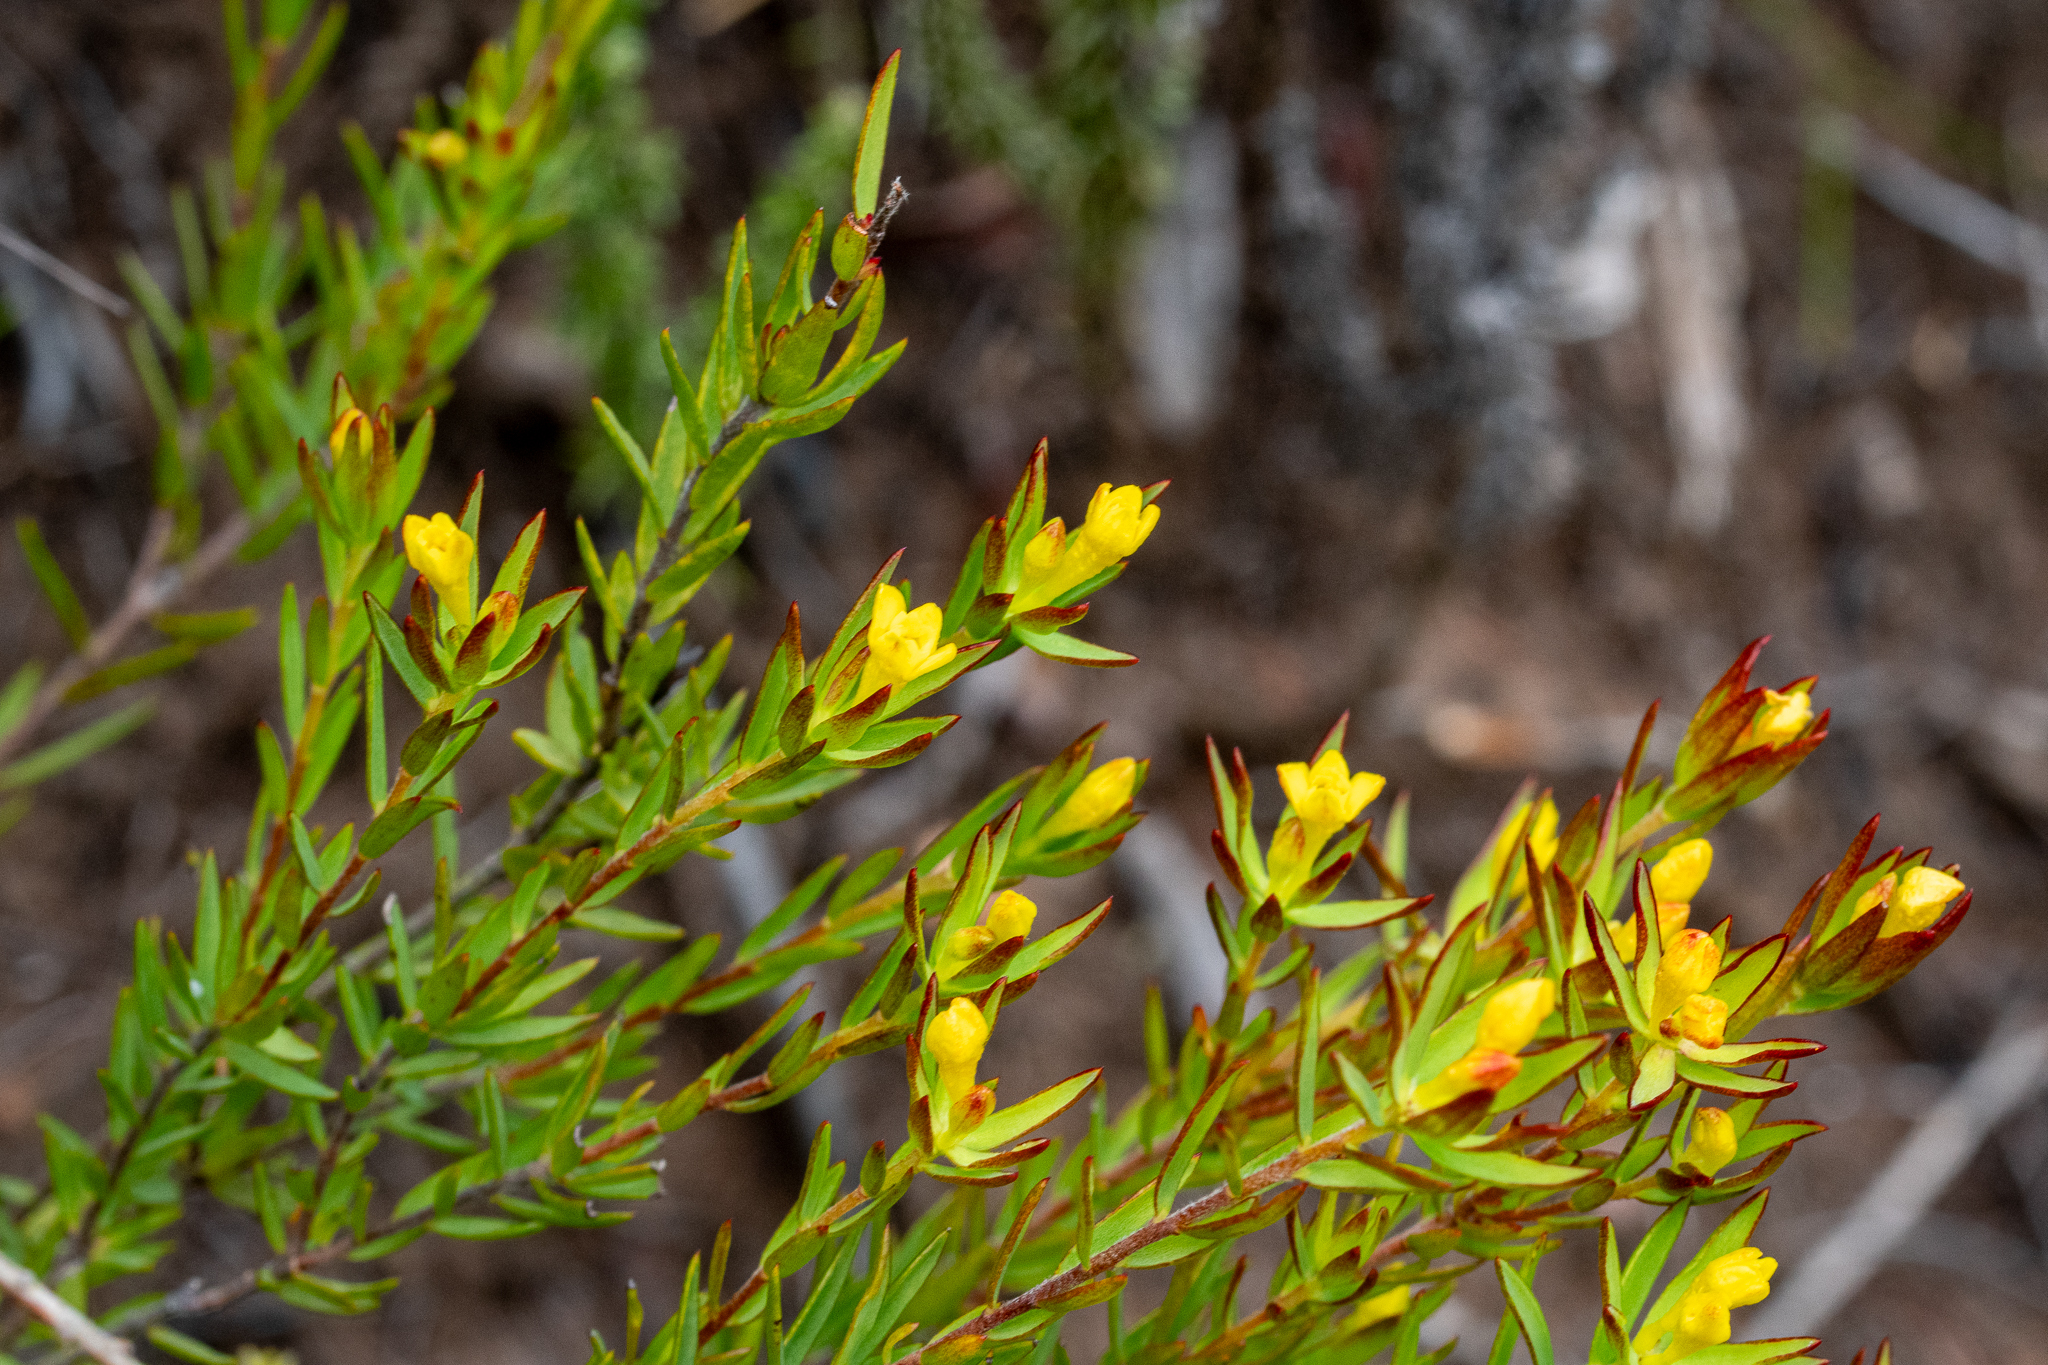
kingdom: Plantae
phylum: Tracheophyta
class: Magnoliopsida
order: Malvales
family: Thymelaeaceae
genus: Gnidia
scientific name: Gnidia juniperifolia
